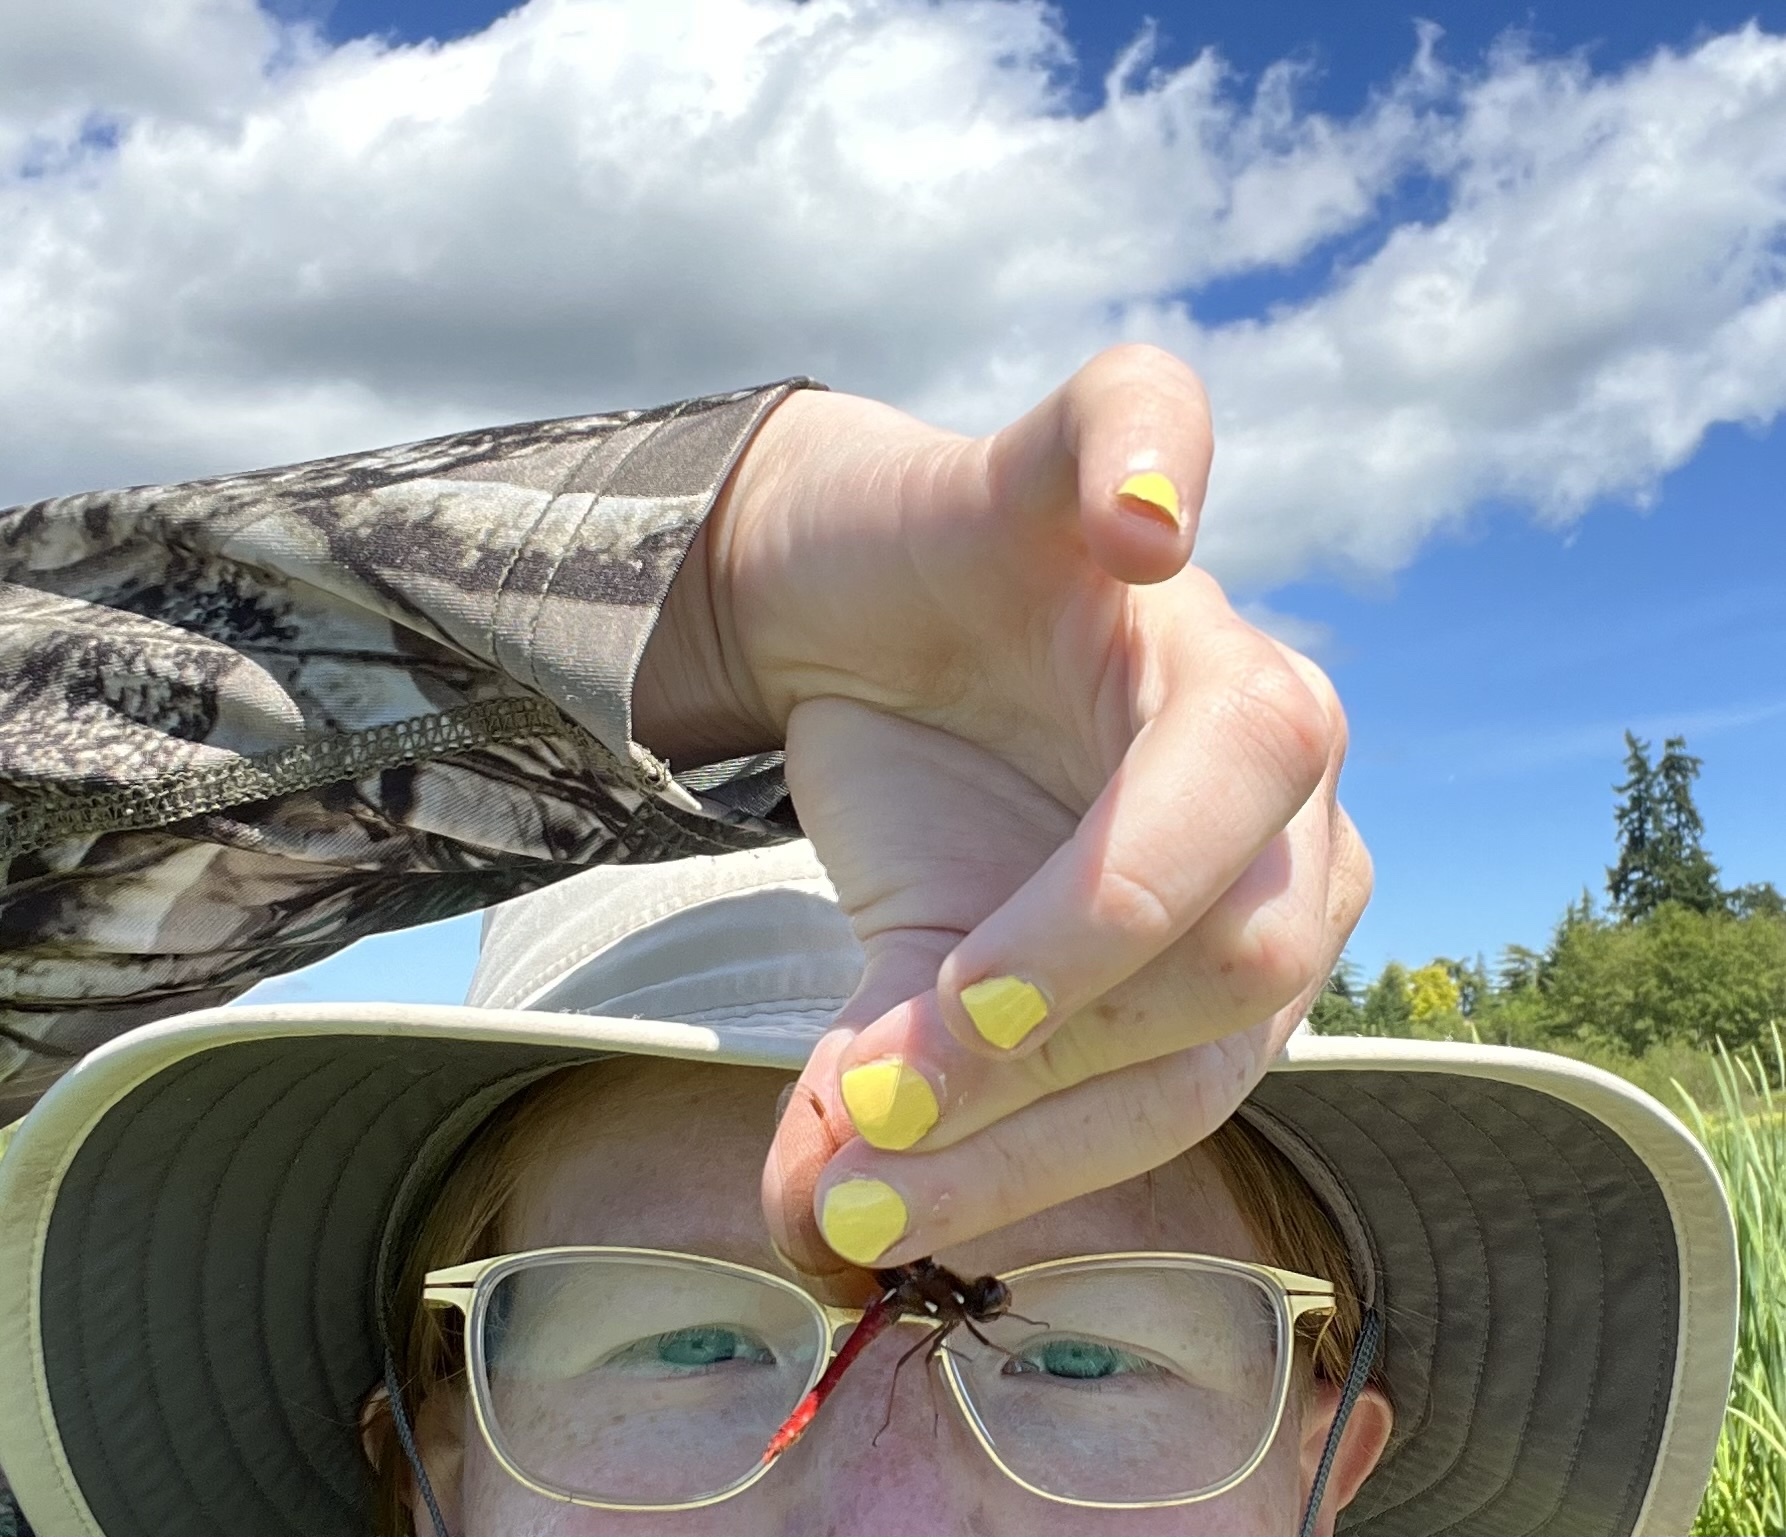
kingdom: Animalia
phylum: Arthropoda
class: Insecta
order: Odonata
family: Libellulidae
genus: Sympetrum
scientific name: Sympetrum illotum
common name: Cardinal meadowhawk
